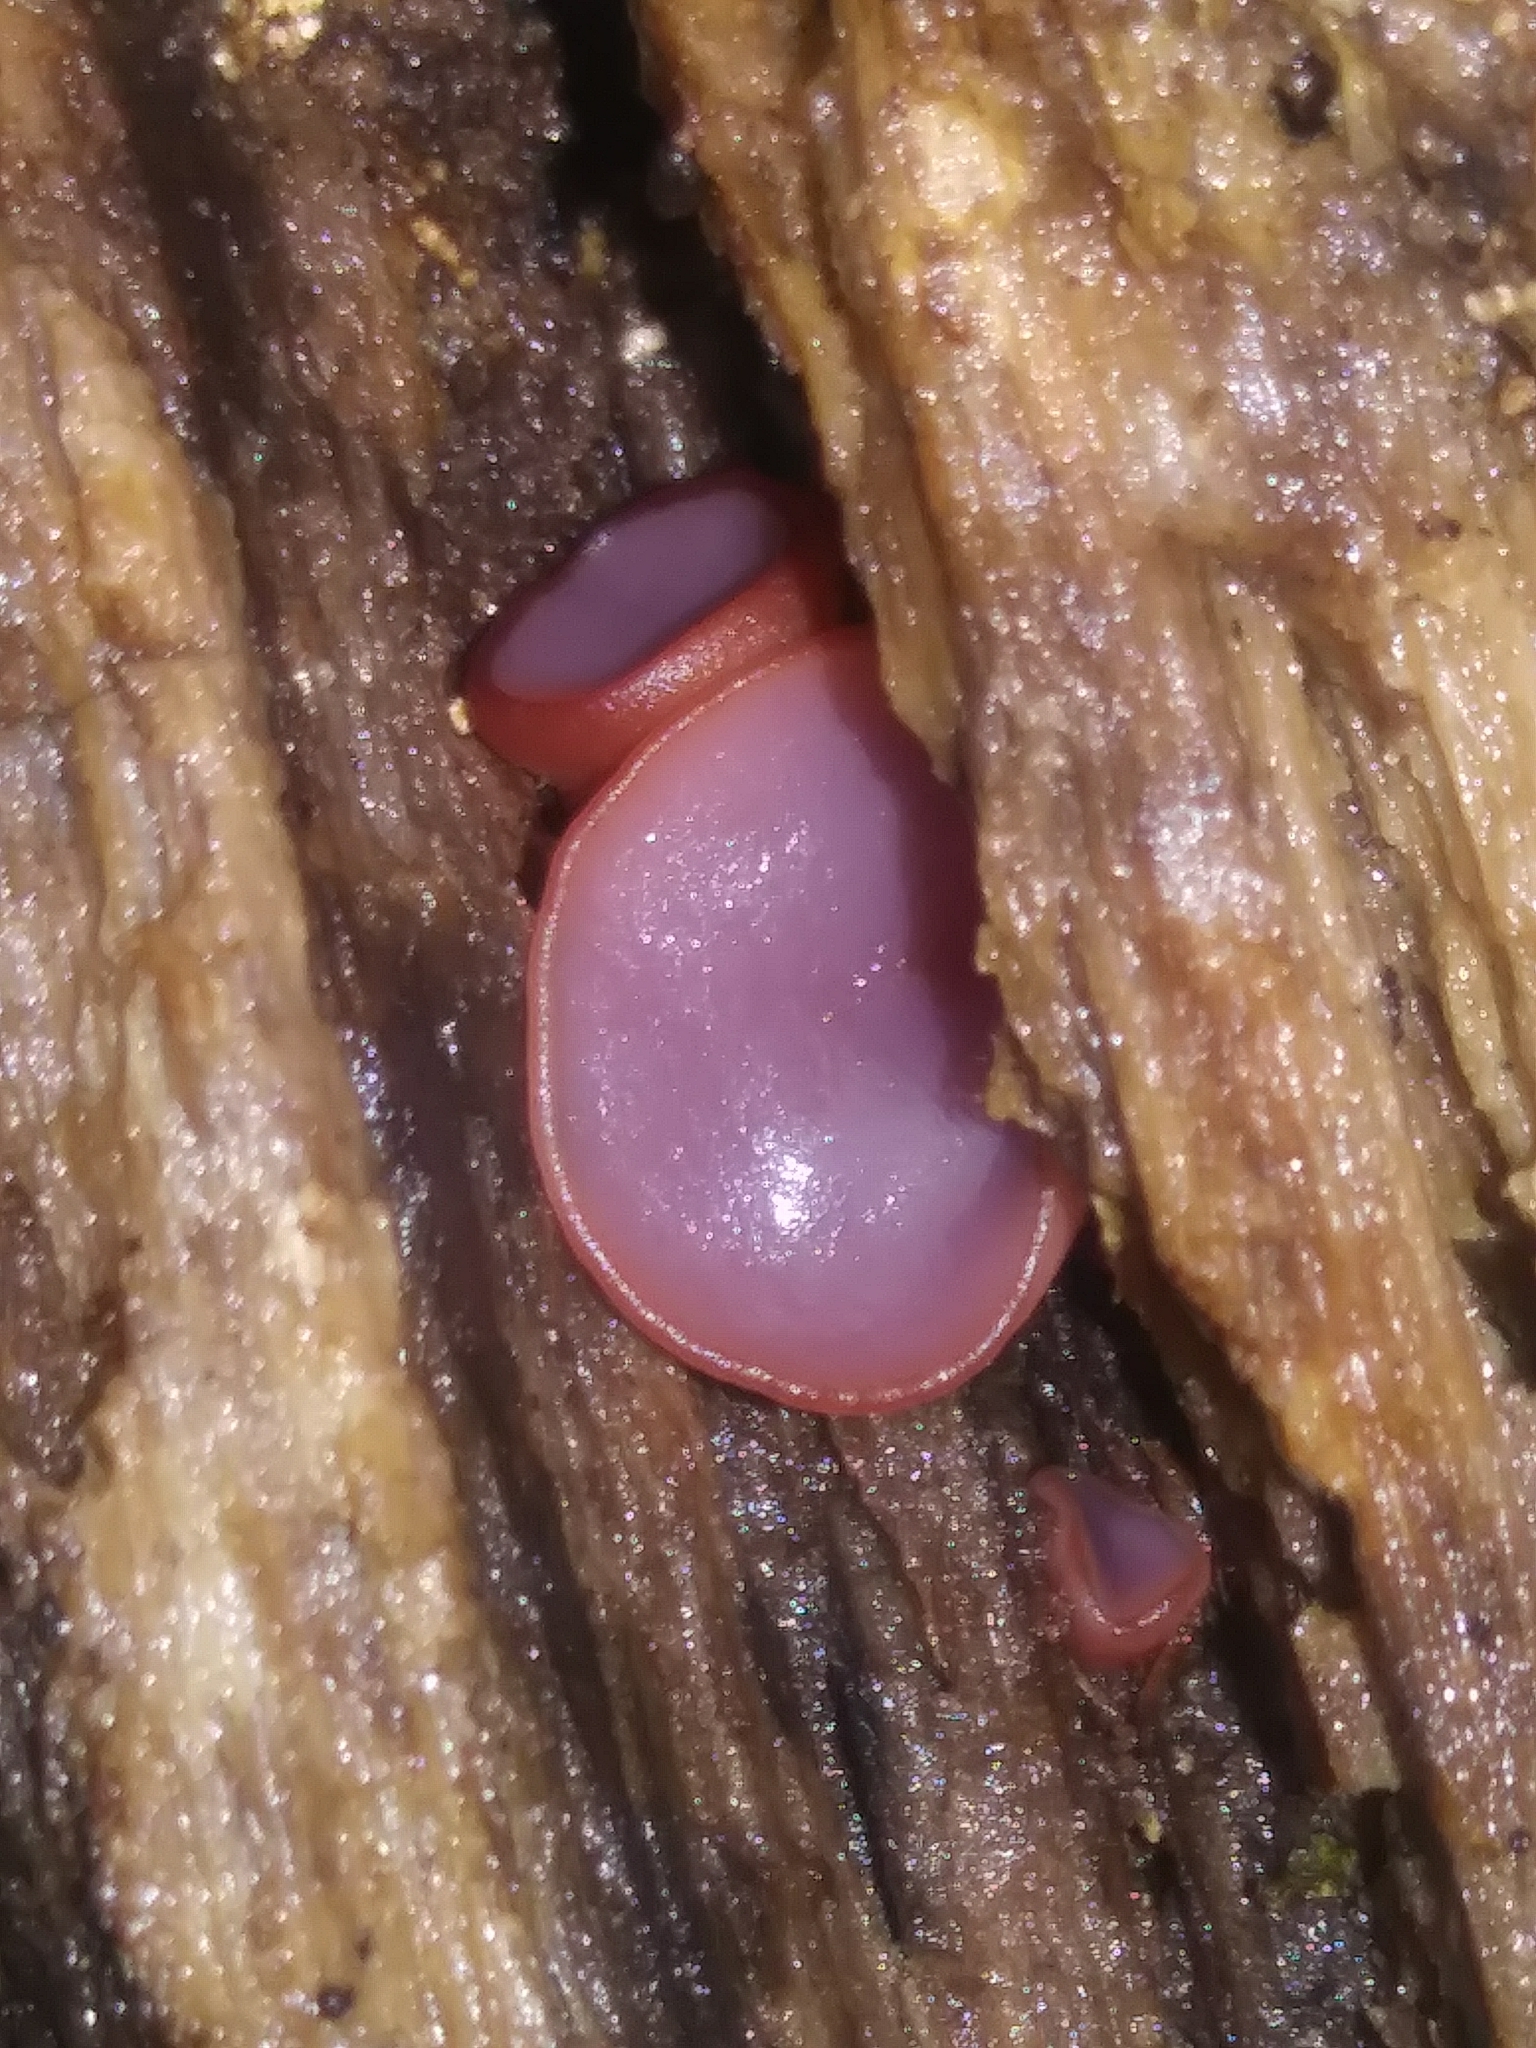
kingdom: Fungi
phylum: Ascomycota
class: Leotiomycetes
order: Helotiales
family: Gelatinodiscaceae
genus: Ascocoryne
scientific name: Ascocoryne sarcoides
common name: Purple jellydisc
